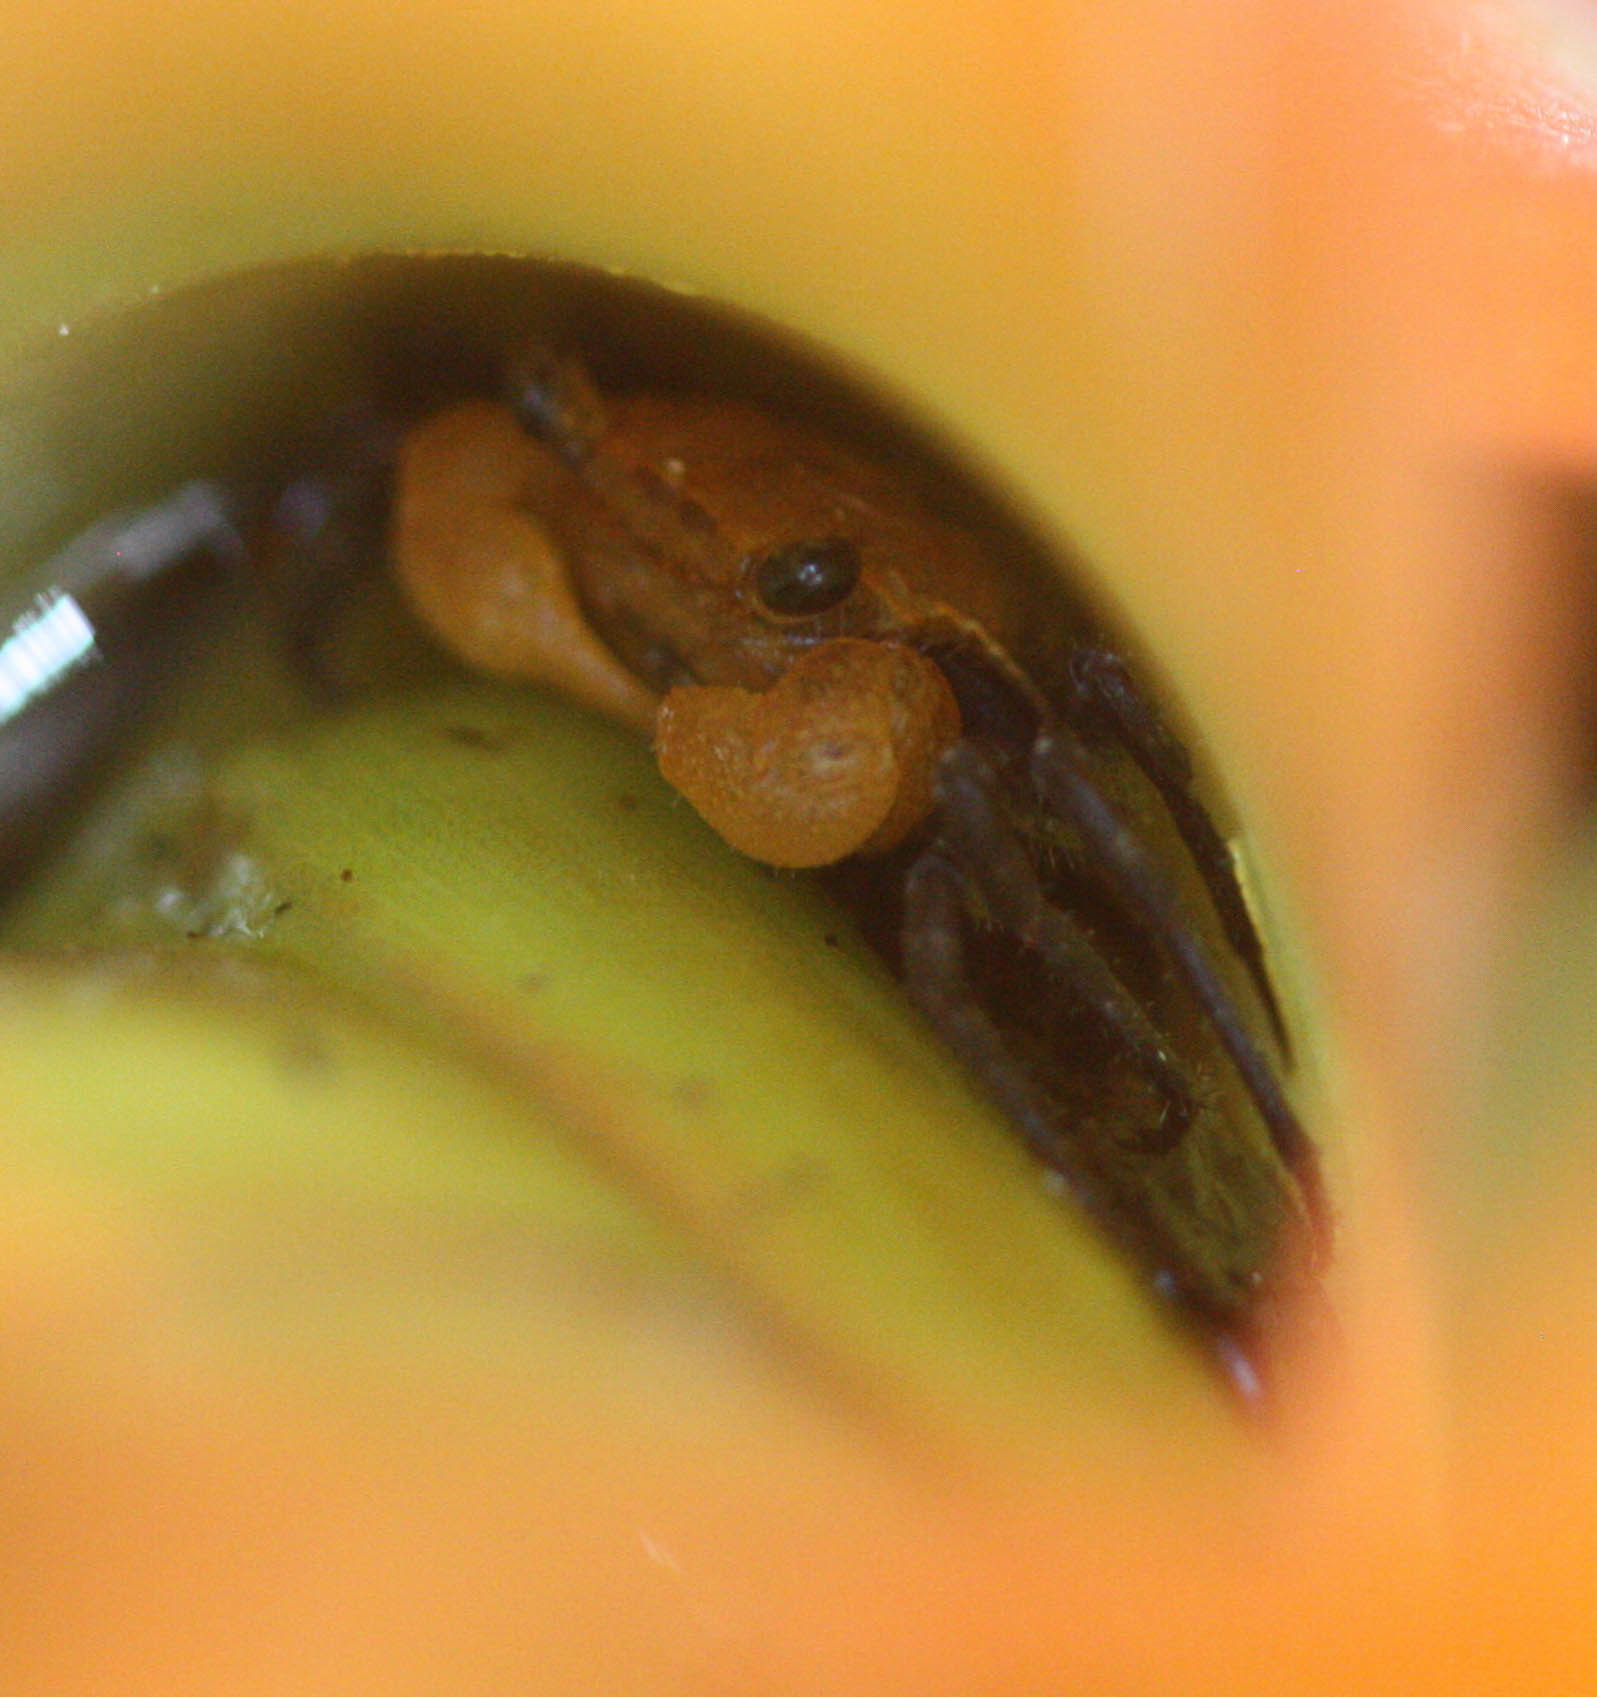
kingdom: Animalia
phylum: Arthropoda
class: Malacostraca
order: Decapoda
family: Sesarmidae
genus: Geosesarma
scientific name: Geosesarma faustum
